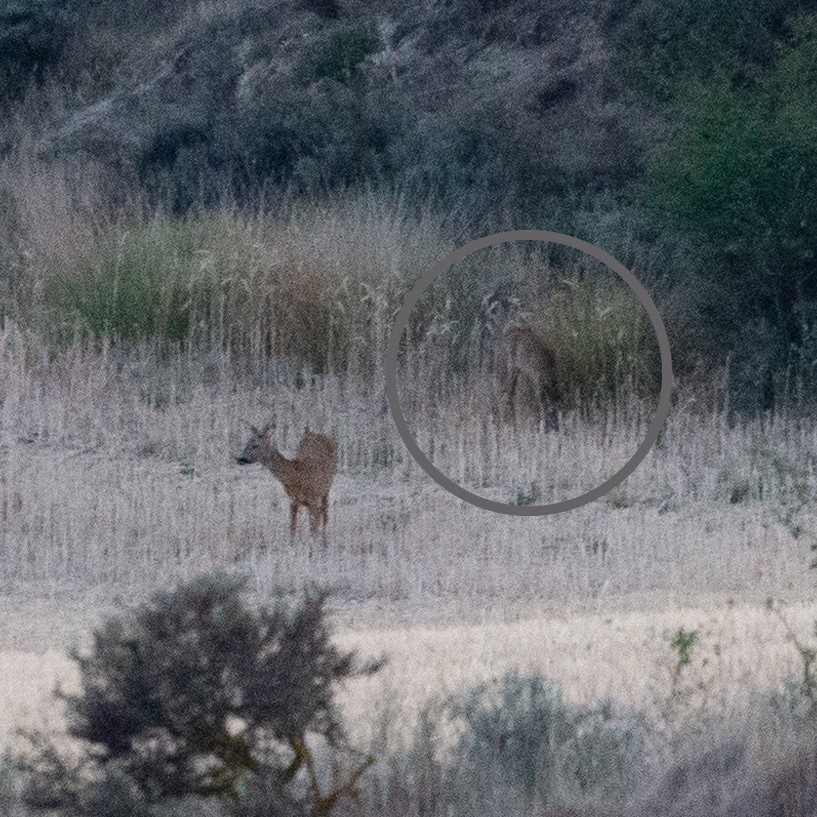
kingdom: Animalia
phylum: Chordata
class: Mammalia
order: Artiodactyla
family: Cervidae
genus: Capreolus
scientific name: Capreolus capreolus
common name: Western roe deer
